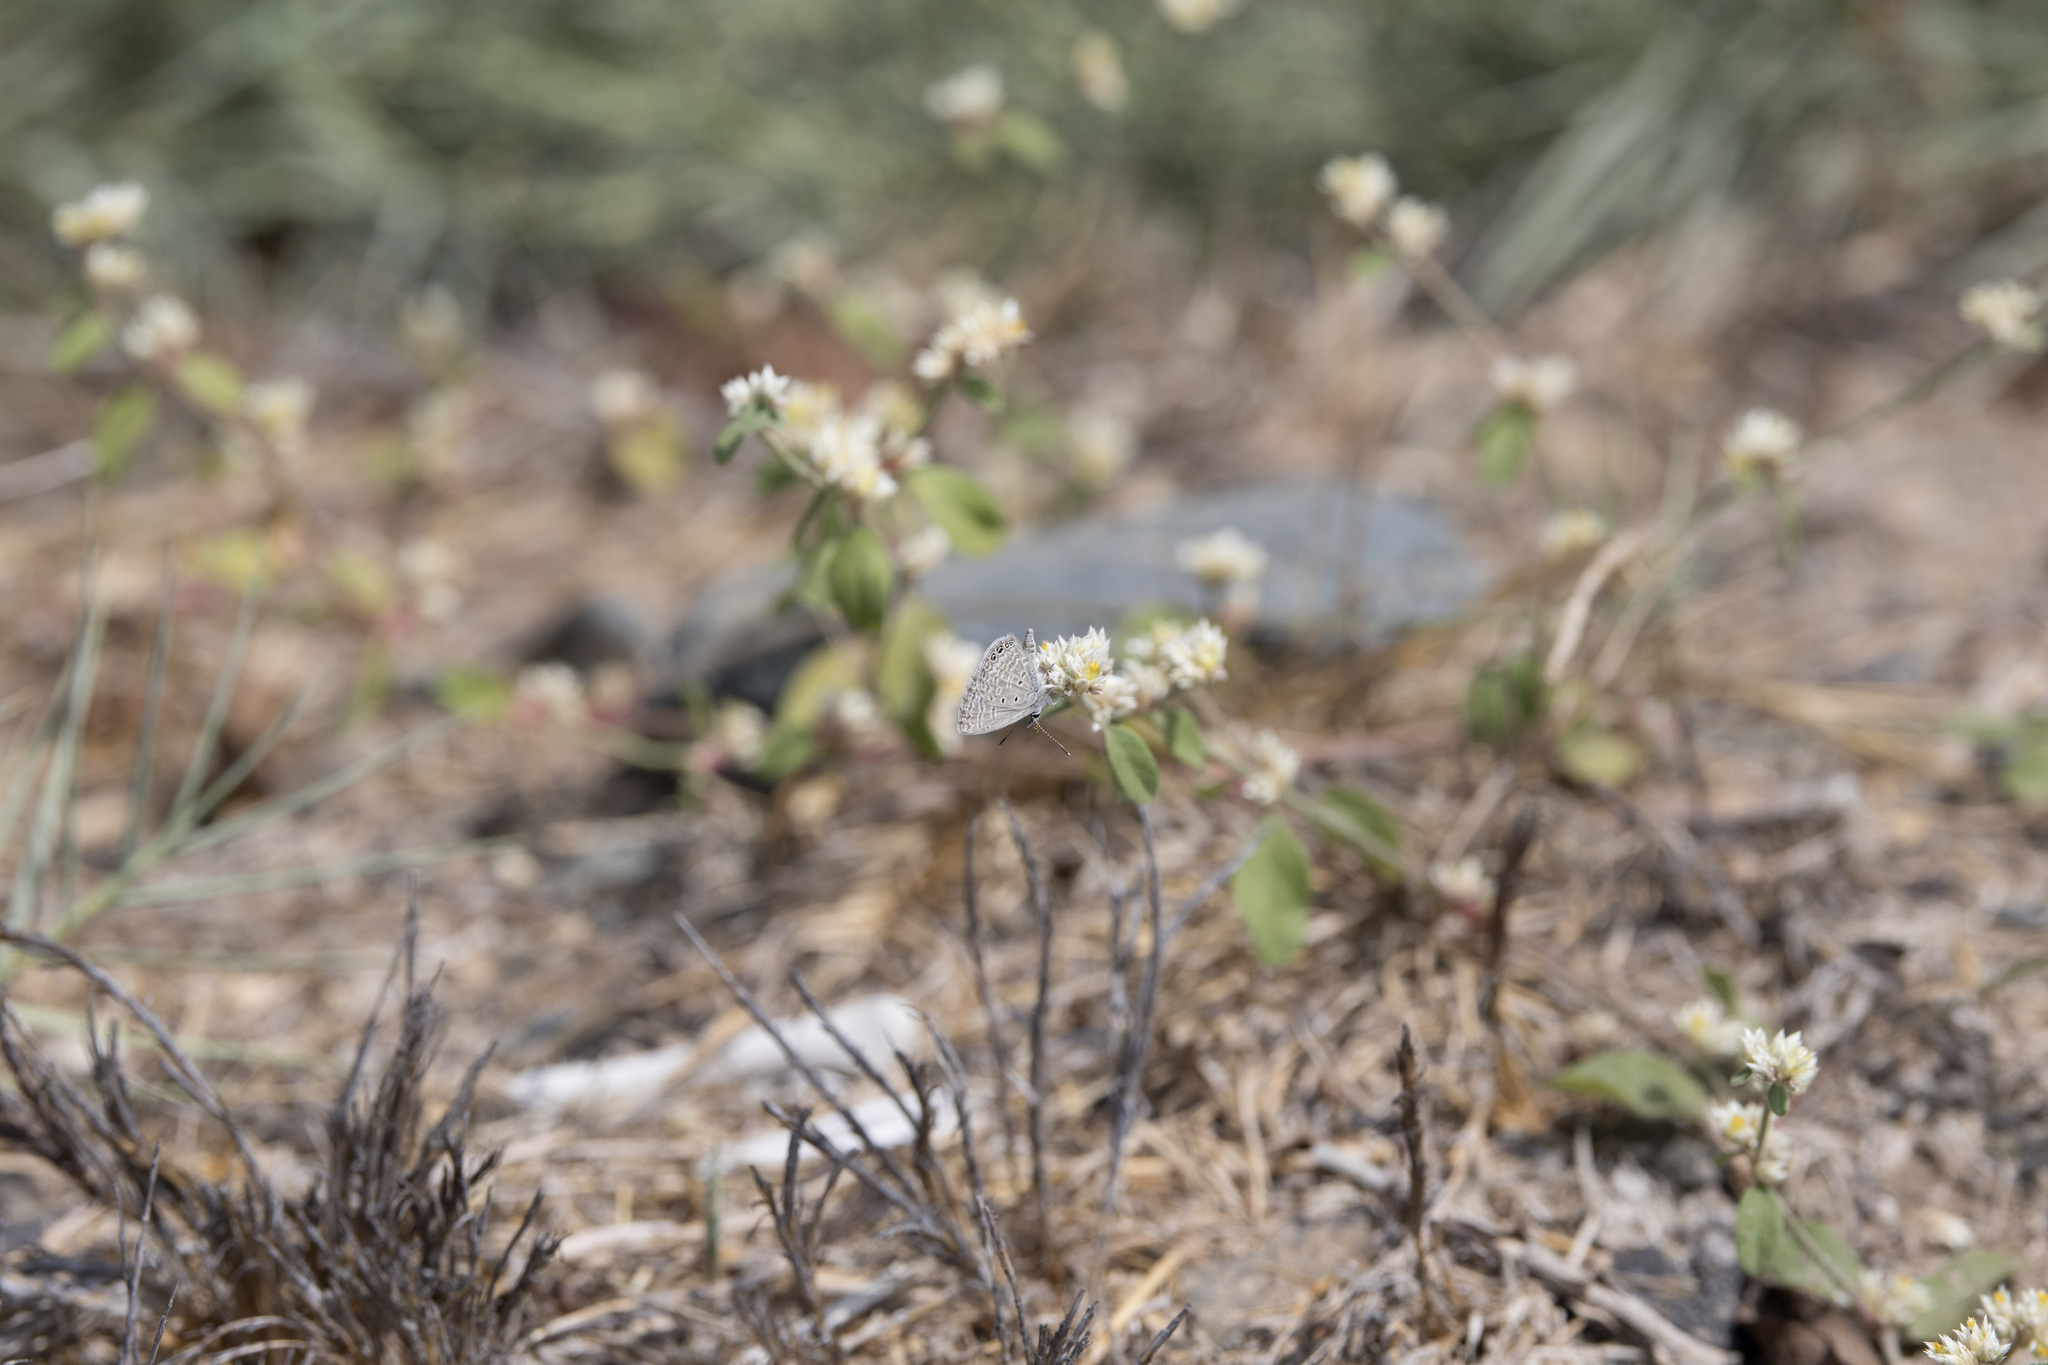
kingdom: Animalia
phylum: Arthropoda
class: Insecta
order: Lepidoptera
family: Lycaenidae
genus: Hemiargus
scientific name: Hemiargus ramon
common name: Ramon blue
